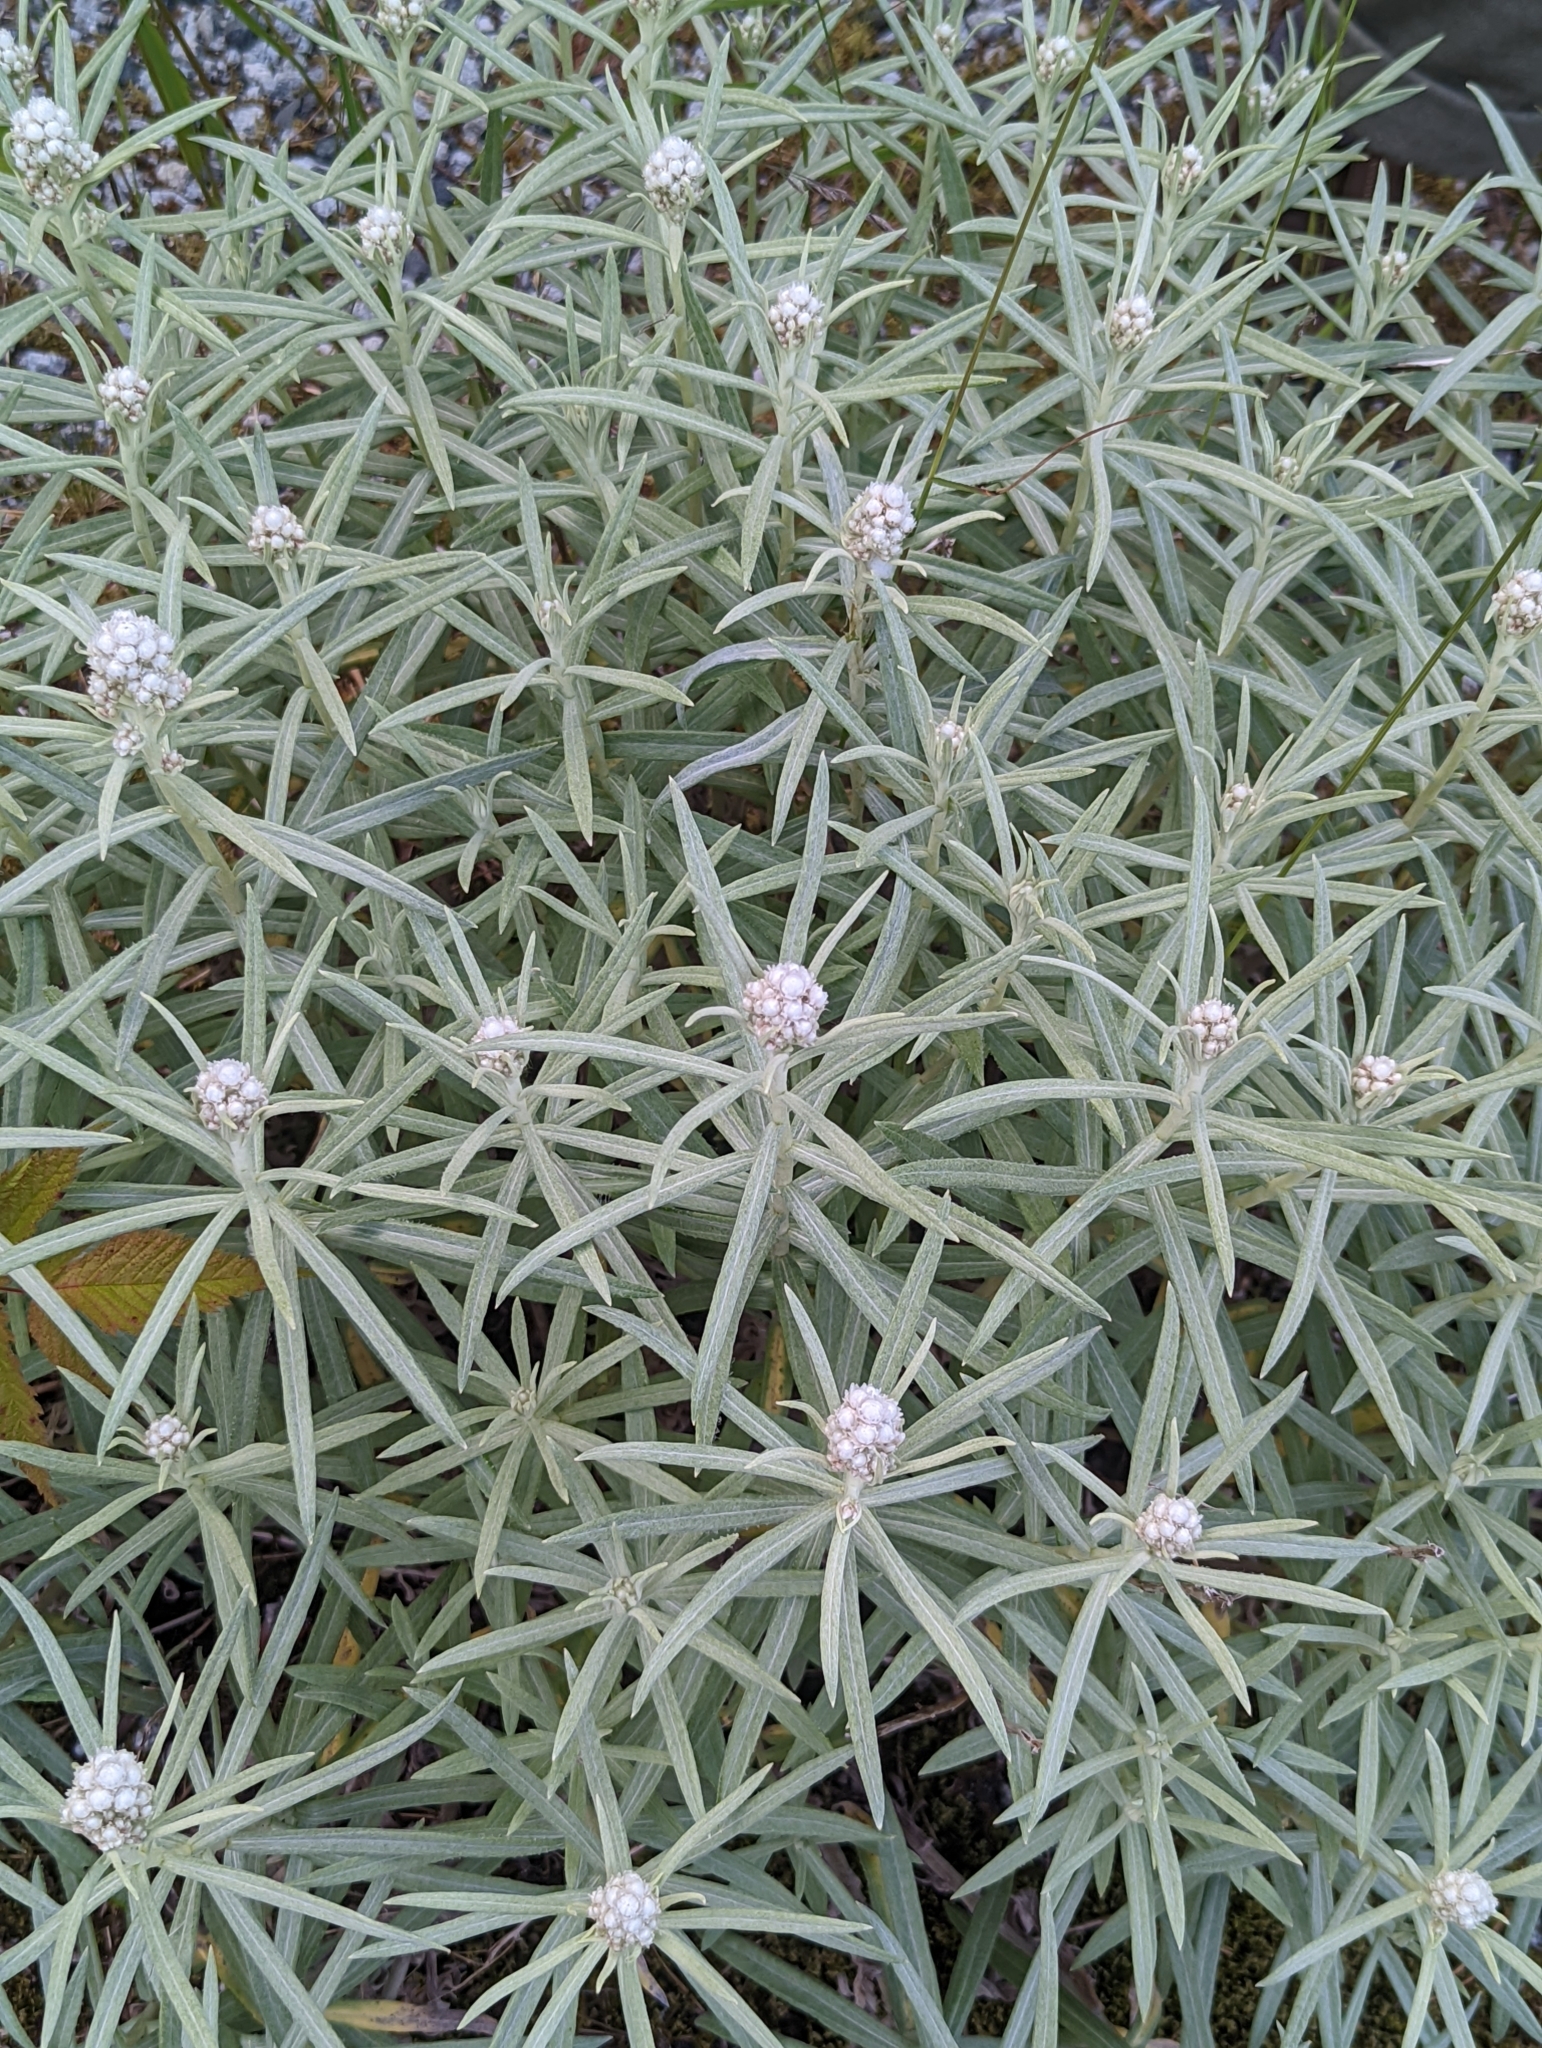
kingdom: Plantae
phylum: Tracheophyta
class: Magnoliopsida
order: Asterales
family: Asteraceae
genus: Anaphalis
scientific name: Anaphalis margaritacea
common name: Pearly everlasting
